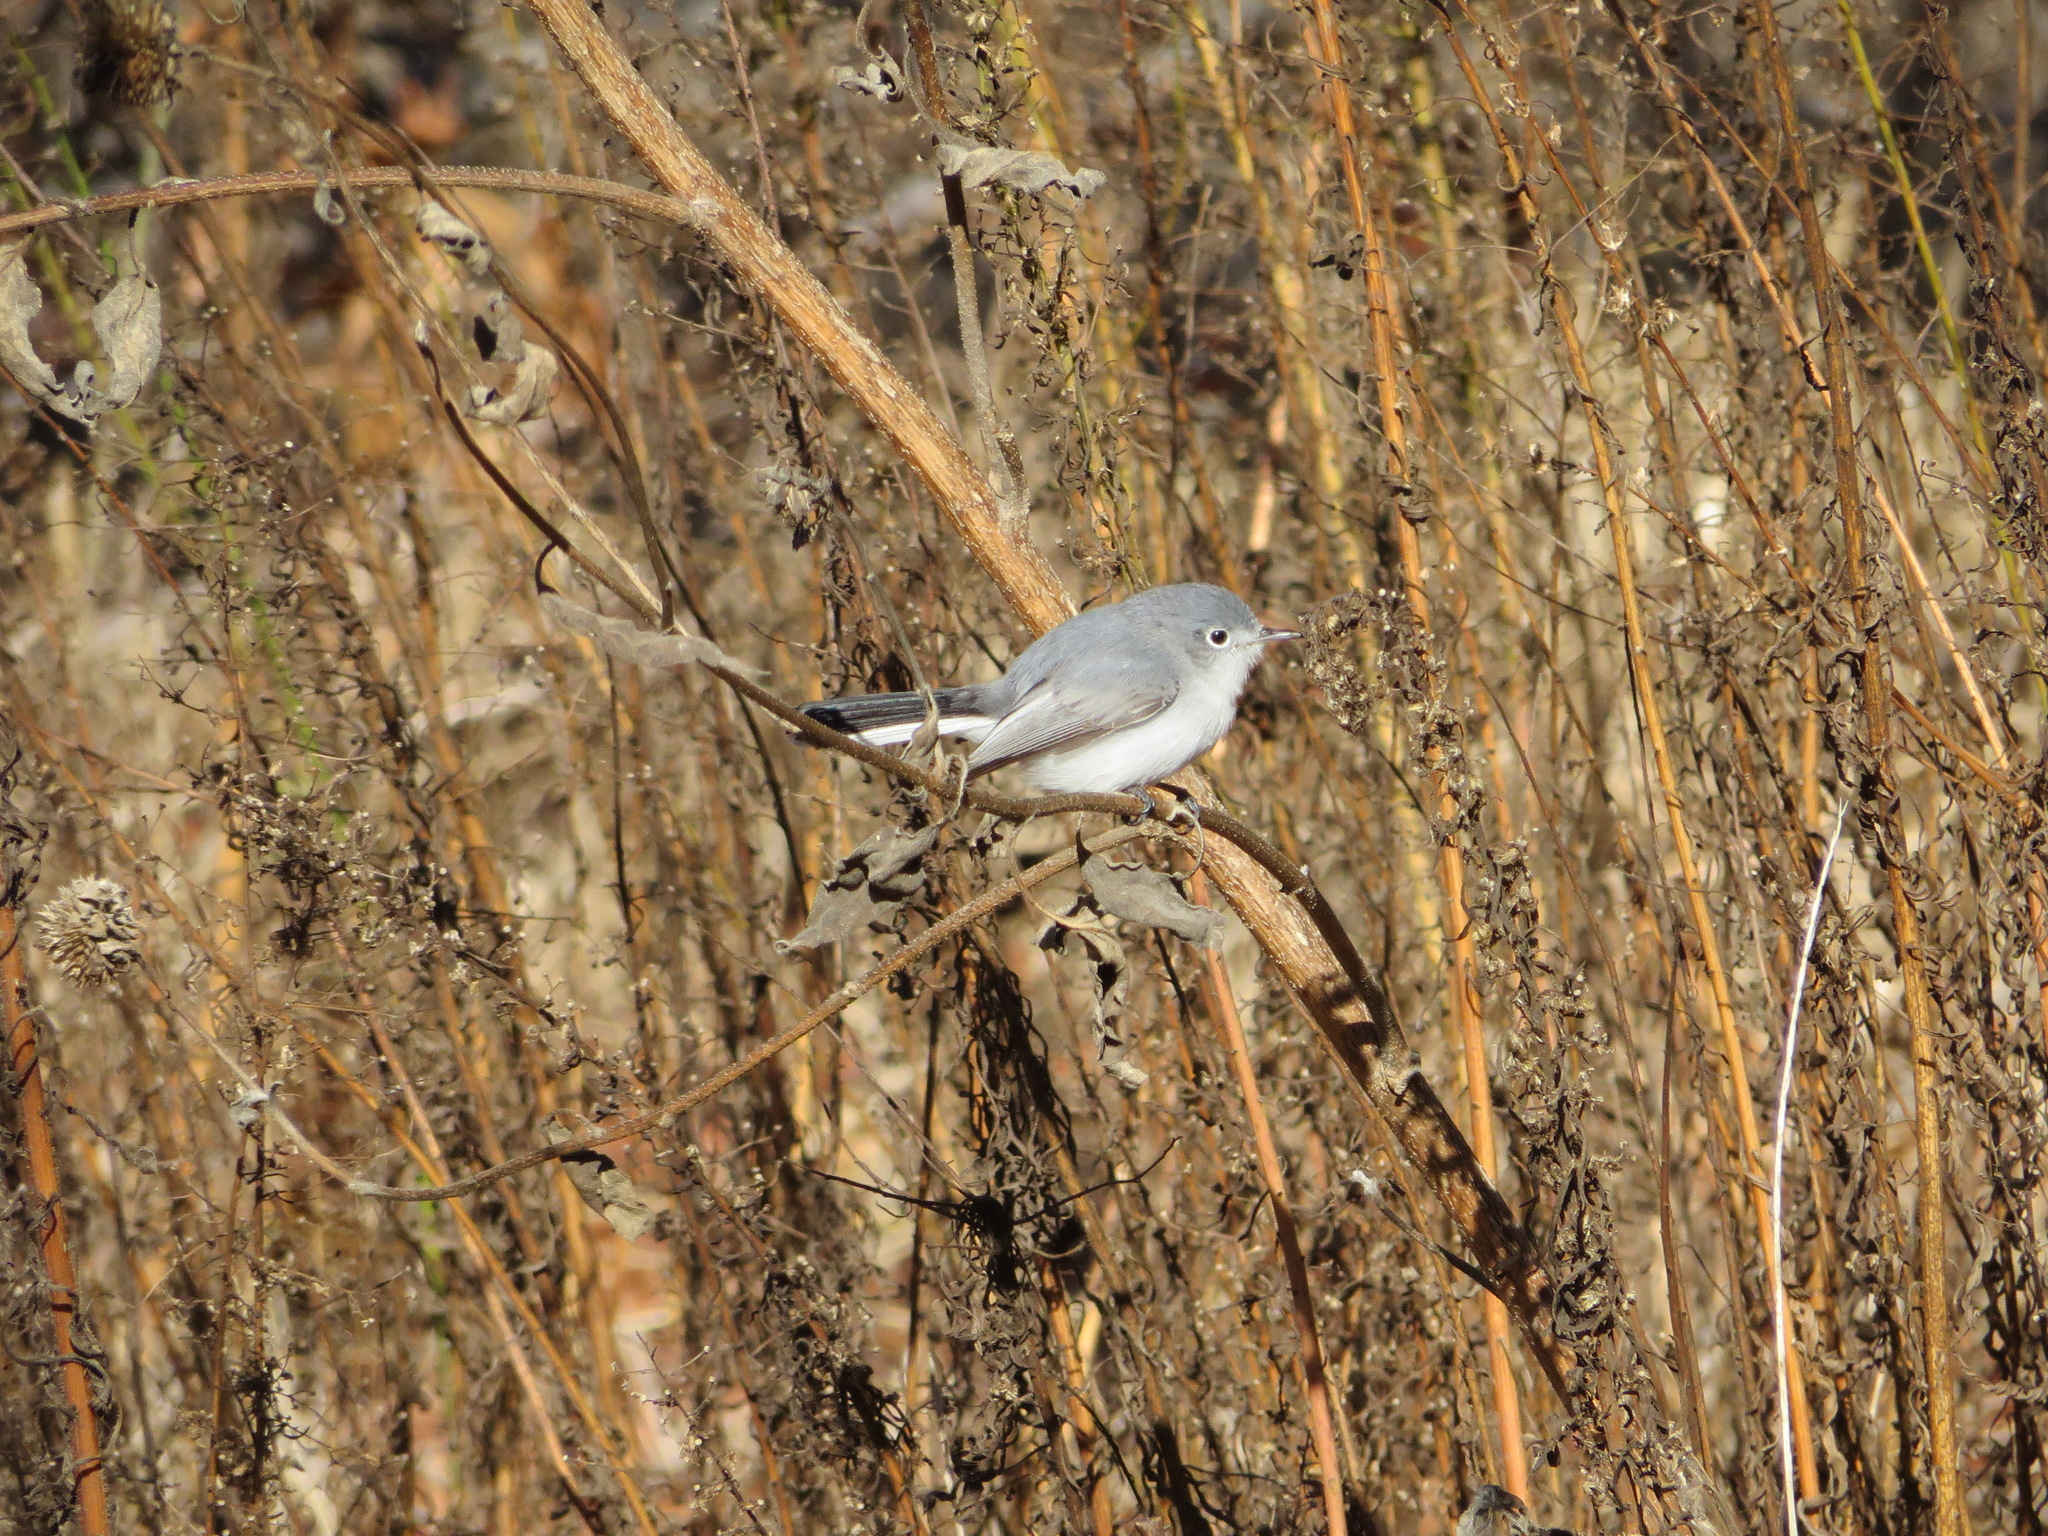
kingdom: Animalia
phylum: Chordata
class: Aves
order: Passeriformes
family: Polioptilidae
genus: Polioptila
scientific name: Polioptila caerulea
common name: Blue-gray gnatcatcher
